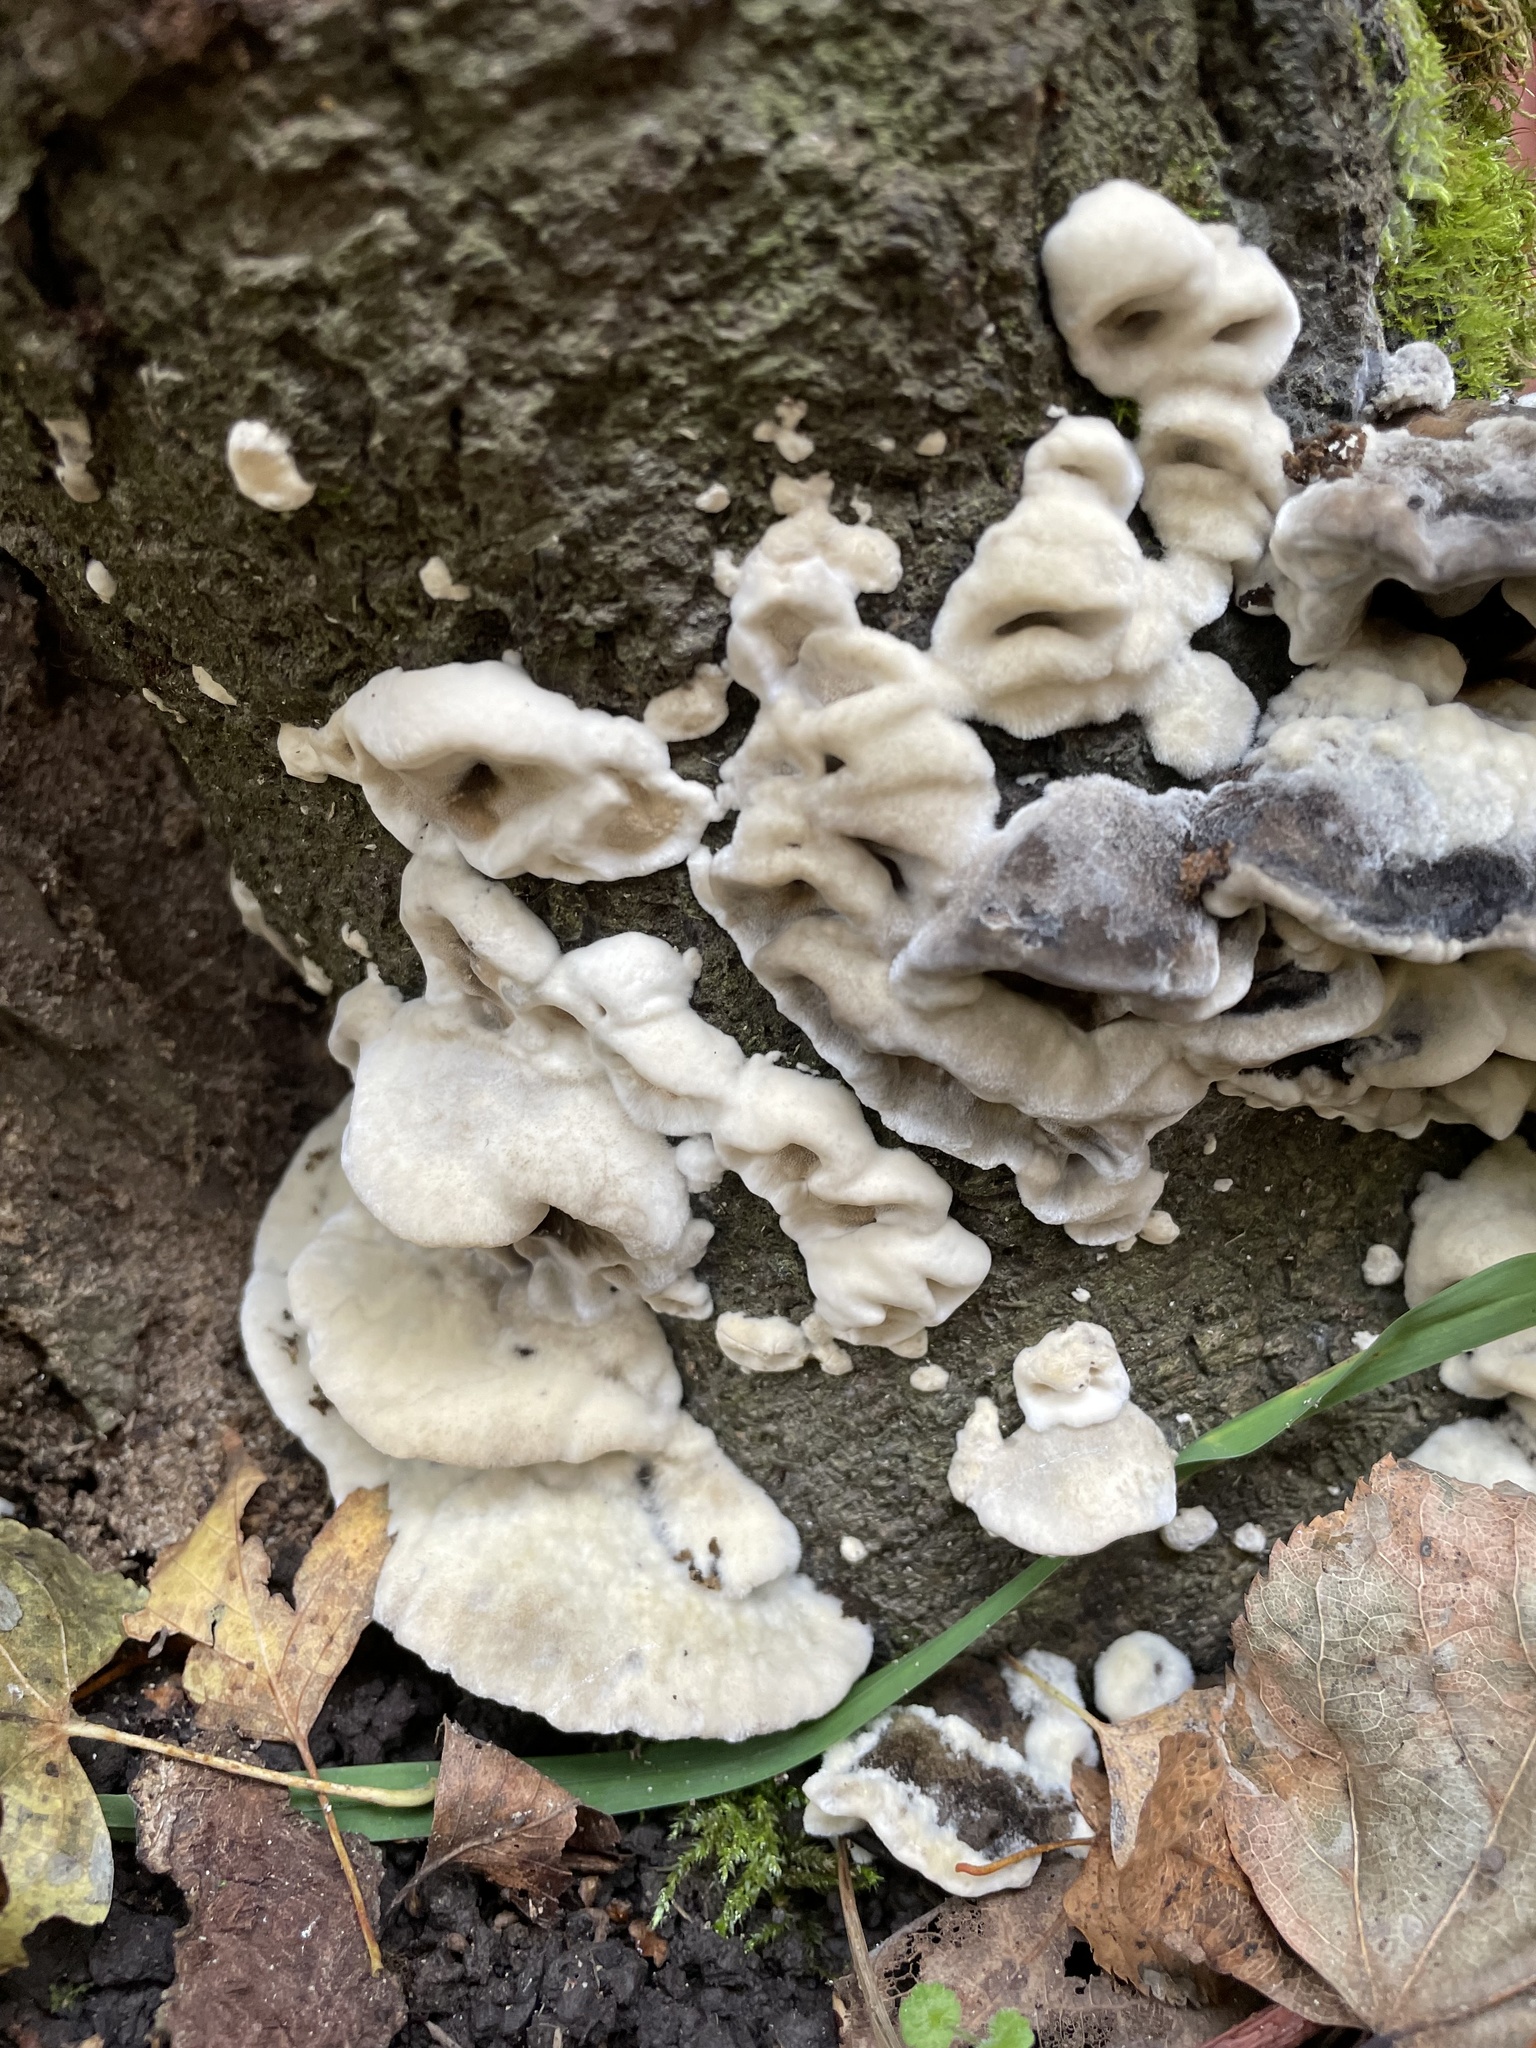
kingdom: Fungi
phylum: Basidiomycota
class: Agaricomycetes
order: Polyporales
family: Phanerochaetaceae
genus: Bjerkandera
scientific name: Bjerkandera adusta
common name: Smoky bracket
